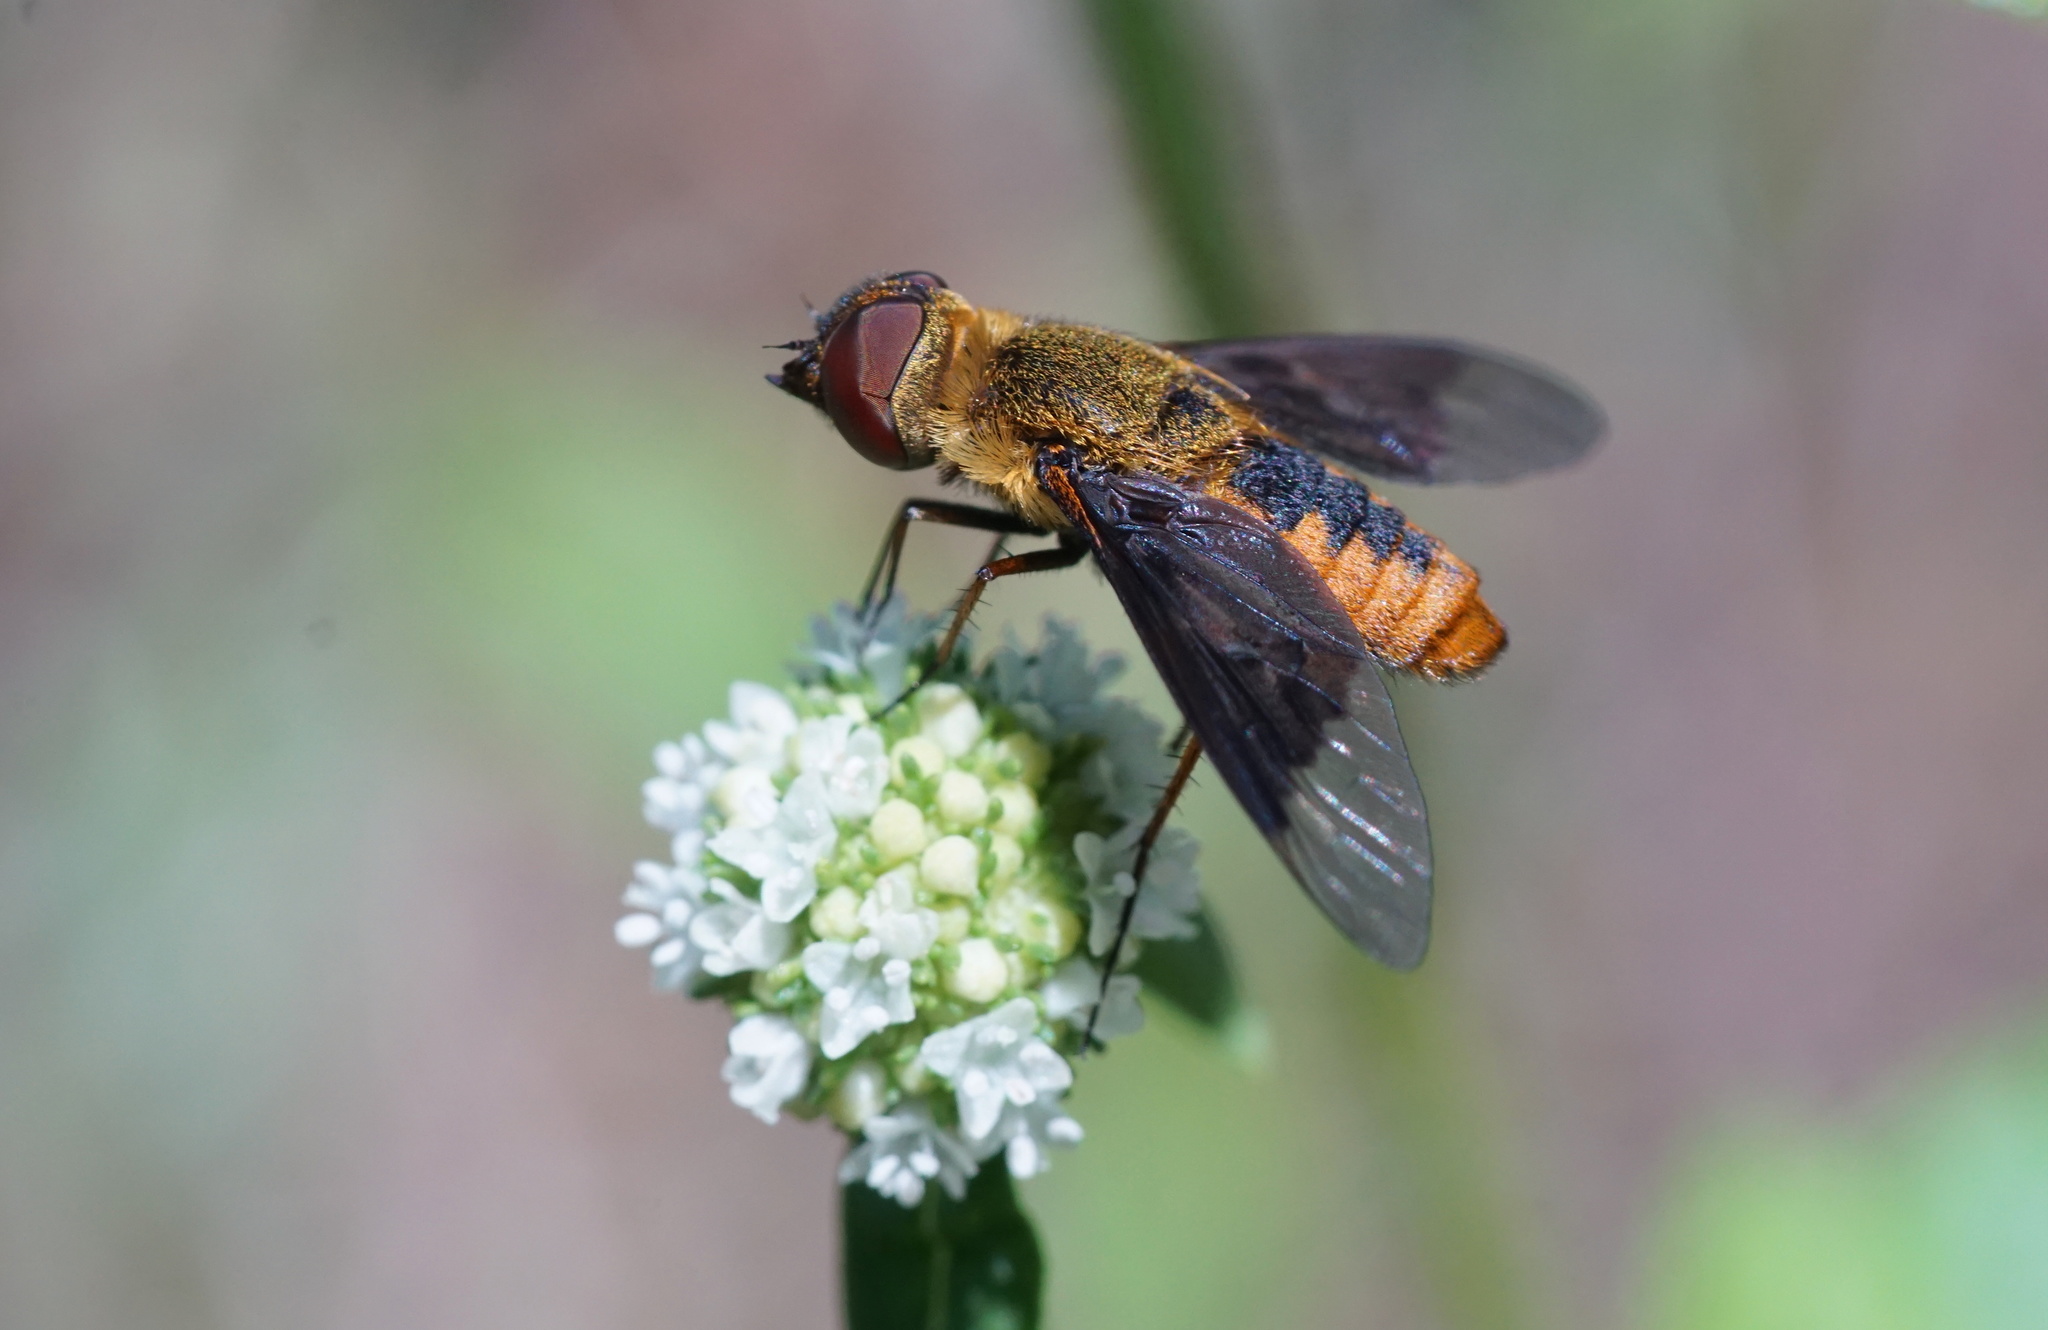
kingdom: Animalia
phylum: Arthropoda
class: Insecta
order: Diptera
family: Bombyliidae
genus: Chrysanthrax
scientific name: Chrysanthrax cypris
